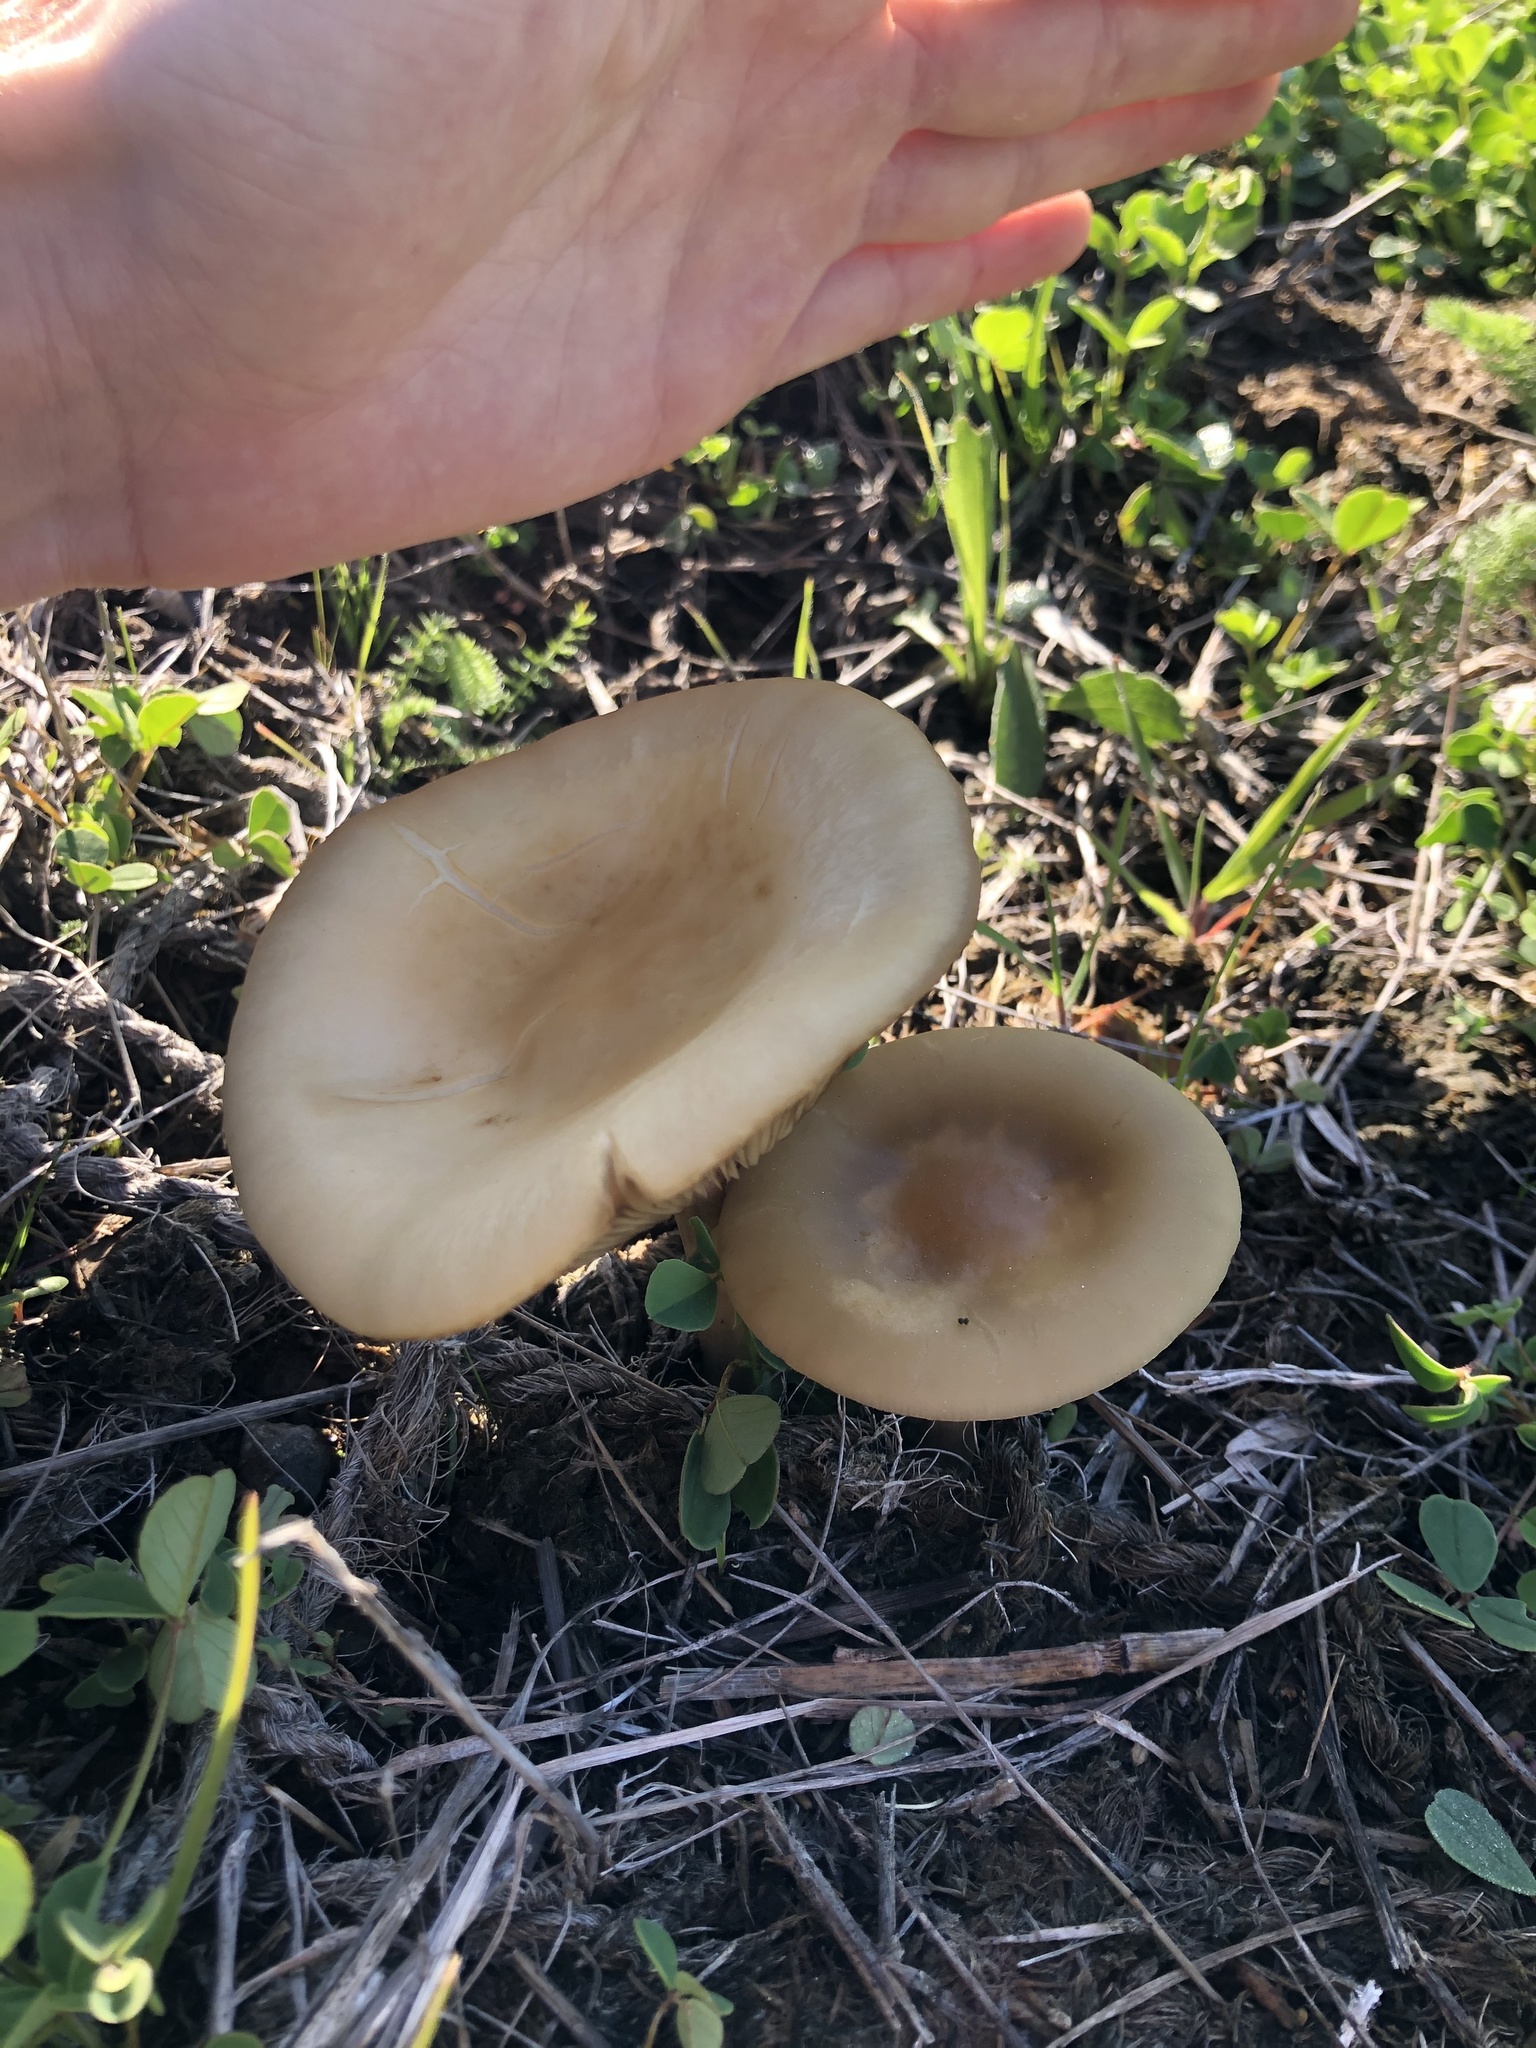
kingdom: Fungi
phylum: Basidiomycota
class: Agaricomycetes
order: Agaricales
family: Strophariaceae
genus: Agrocybe
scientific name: Agrocybe praecox
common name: Spring fieldcap
